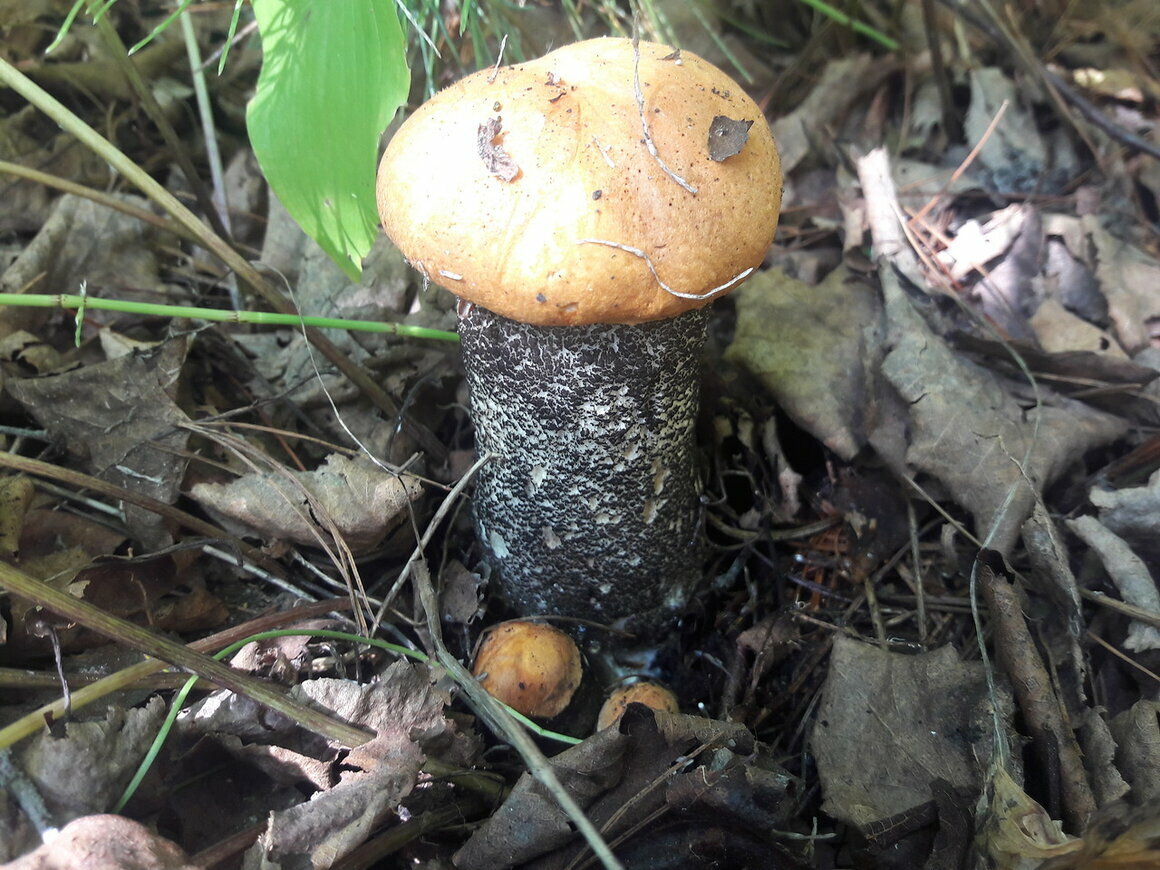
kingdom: Fungi
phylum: Basidiomycota
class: Agaricomycetes
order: Boletales
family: Boletaceae
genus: Leccinum
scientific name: Leccinum aurantiacum
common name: Orange bolete
